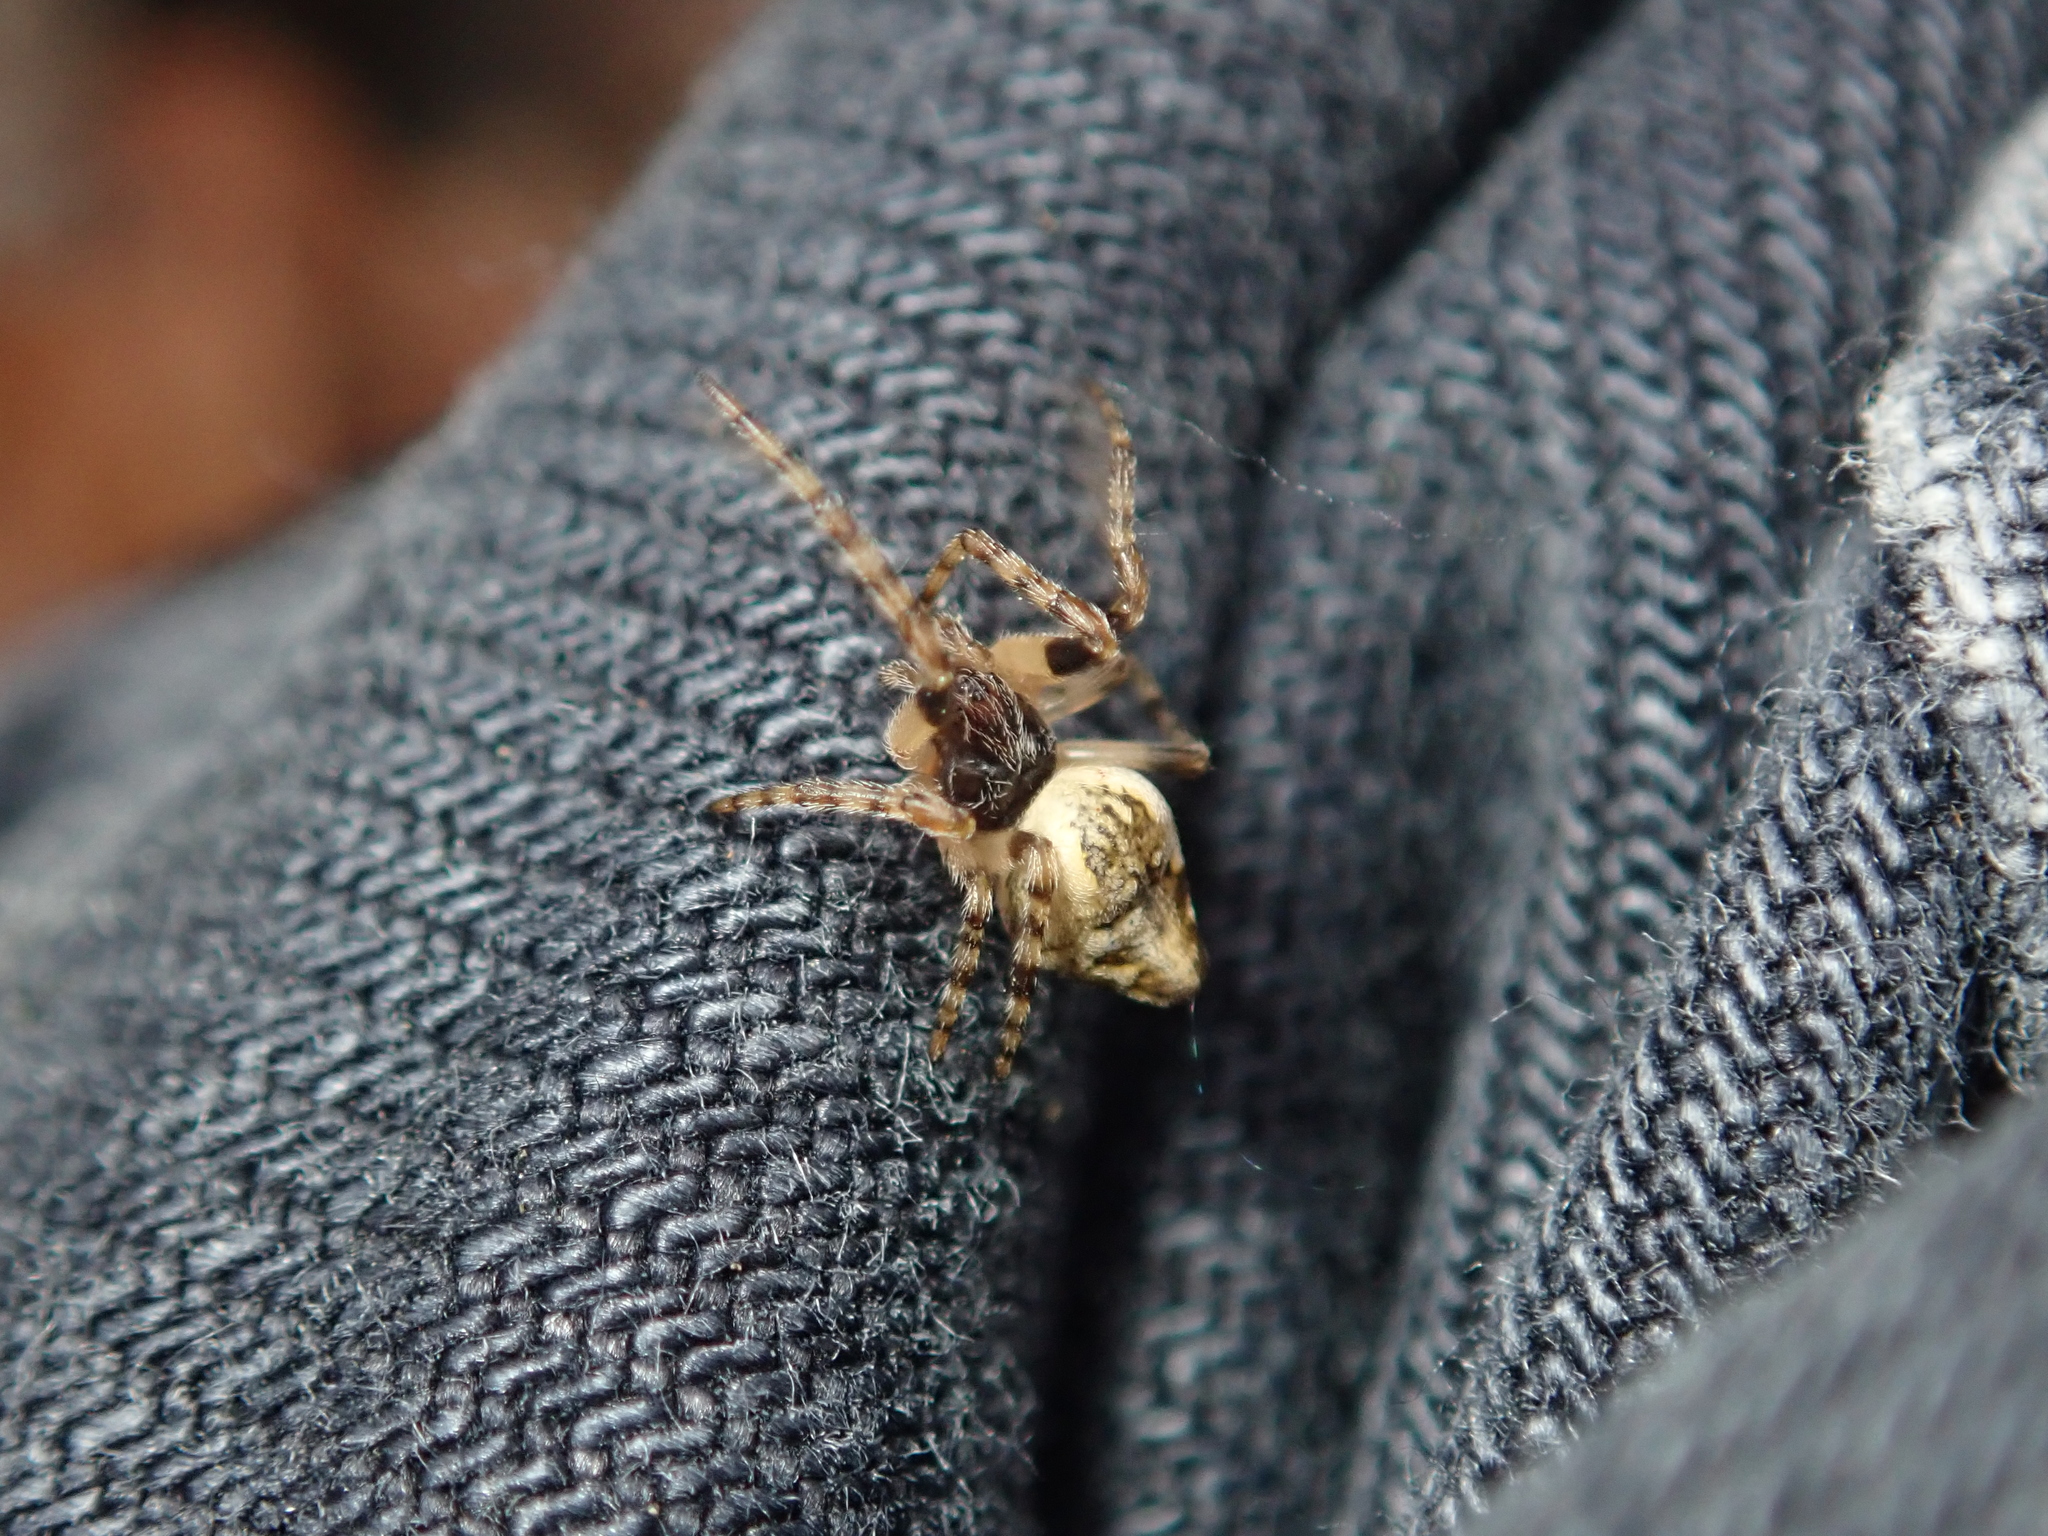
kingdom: Animalia
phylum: Arthropoda
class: Arachnida
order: Araneae
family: Araneidae
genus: Cyclosa
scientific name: Cyclosa conica
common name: Conical trashline orbweaver
